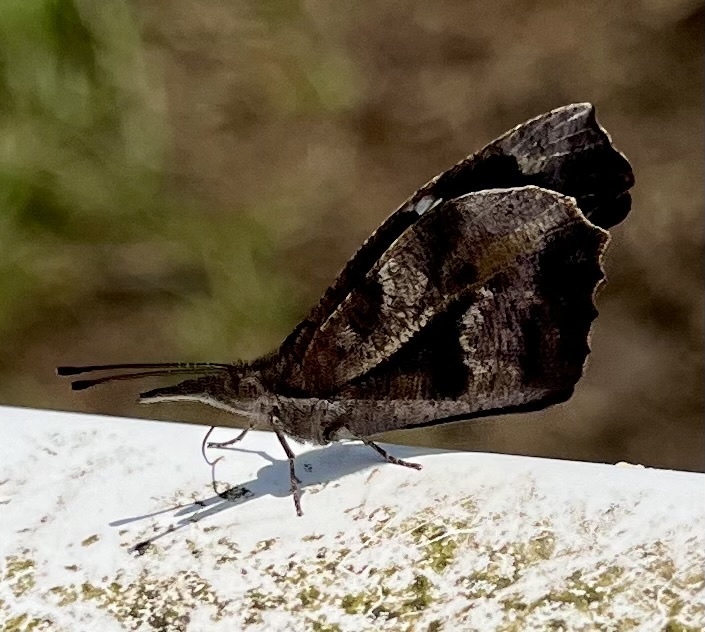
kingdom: Animalia
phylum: Arthropoda
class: Insecta
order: Lepidoptera
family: Nymphalidae
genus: Libytheana
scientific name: Libytheana carinenta
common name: American snout
